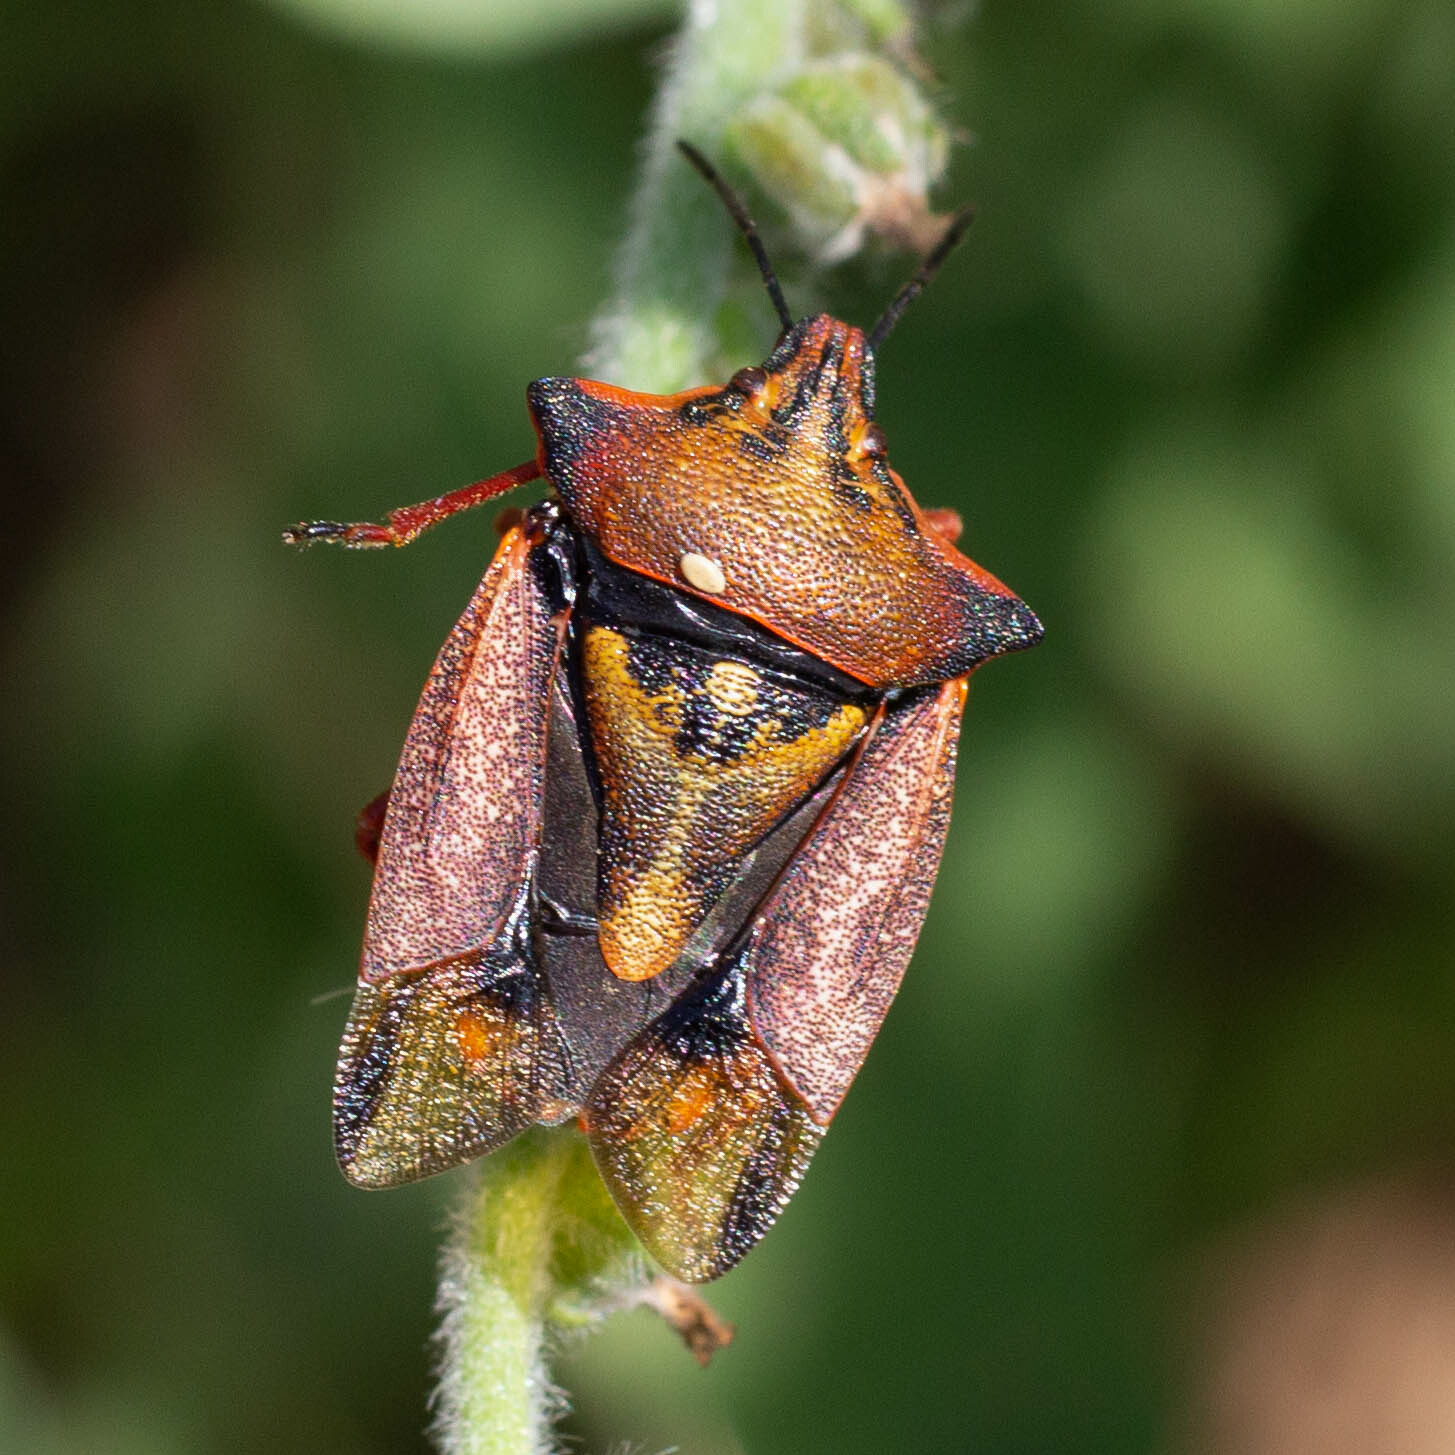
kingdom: Animalia
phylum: Arthropoda
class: Insecta
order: Hemiptera
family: Pentatomidae
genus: Carpocoris
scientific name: Carpocoris mediterraneus
